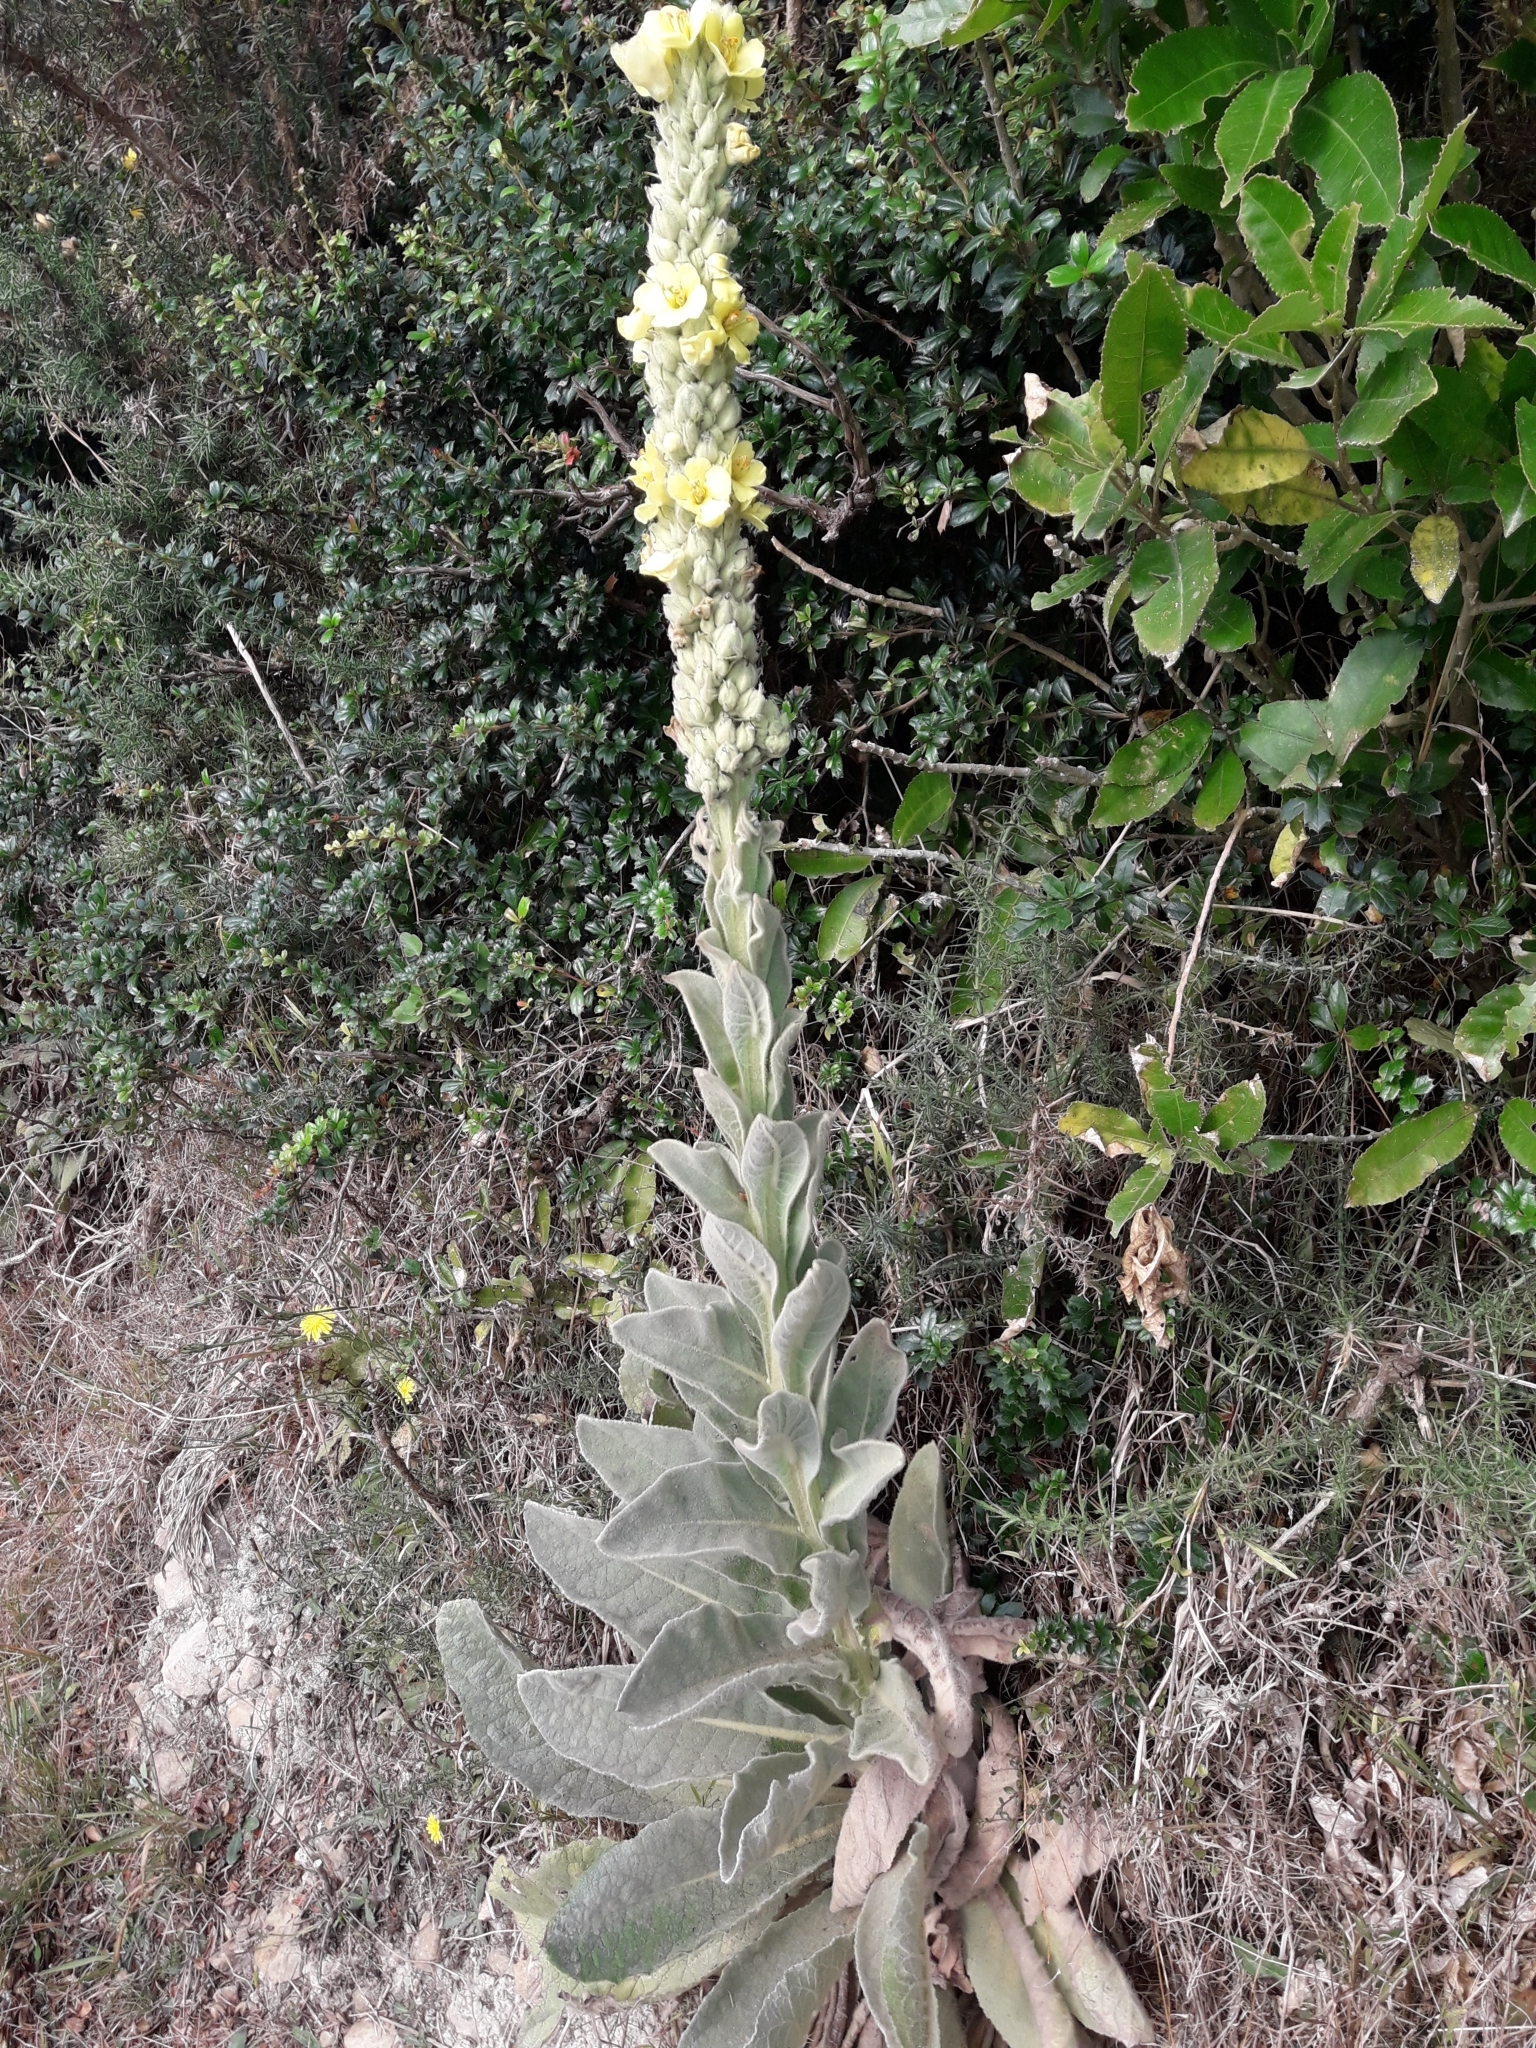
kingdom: Plantae
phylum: Tracheophyta
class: Magnoliopsida
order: Lamiales
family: Scrophulariaceae
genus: Verbascum
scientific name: Verbascum thapsus
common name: Common mullein
